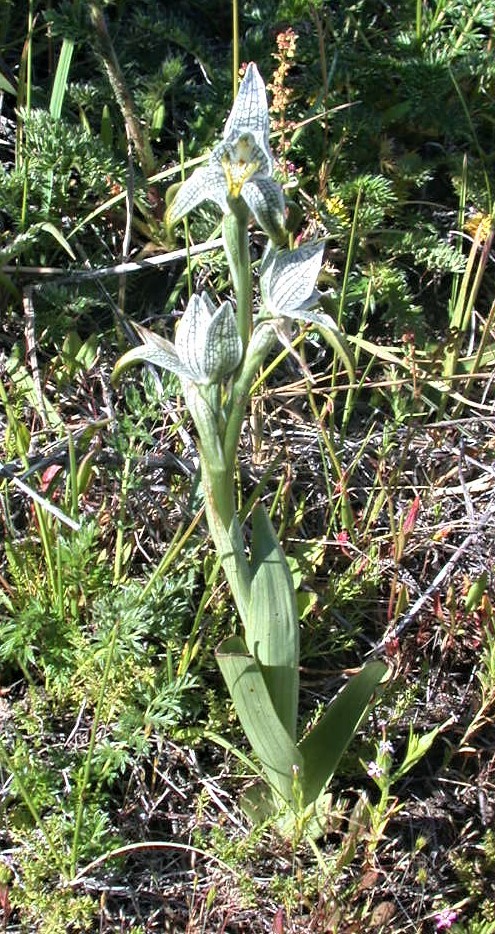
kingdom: Plantae
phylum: Tracheophyta
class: Liliopsida
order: Asparagales
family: Orchidaceae
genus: Chloraea
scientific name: Chloraea magellanica
